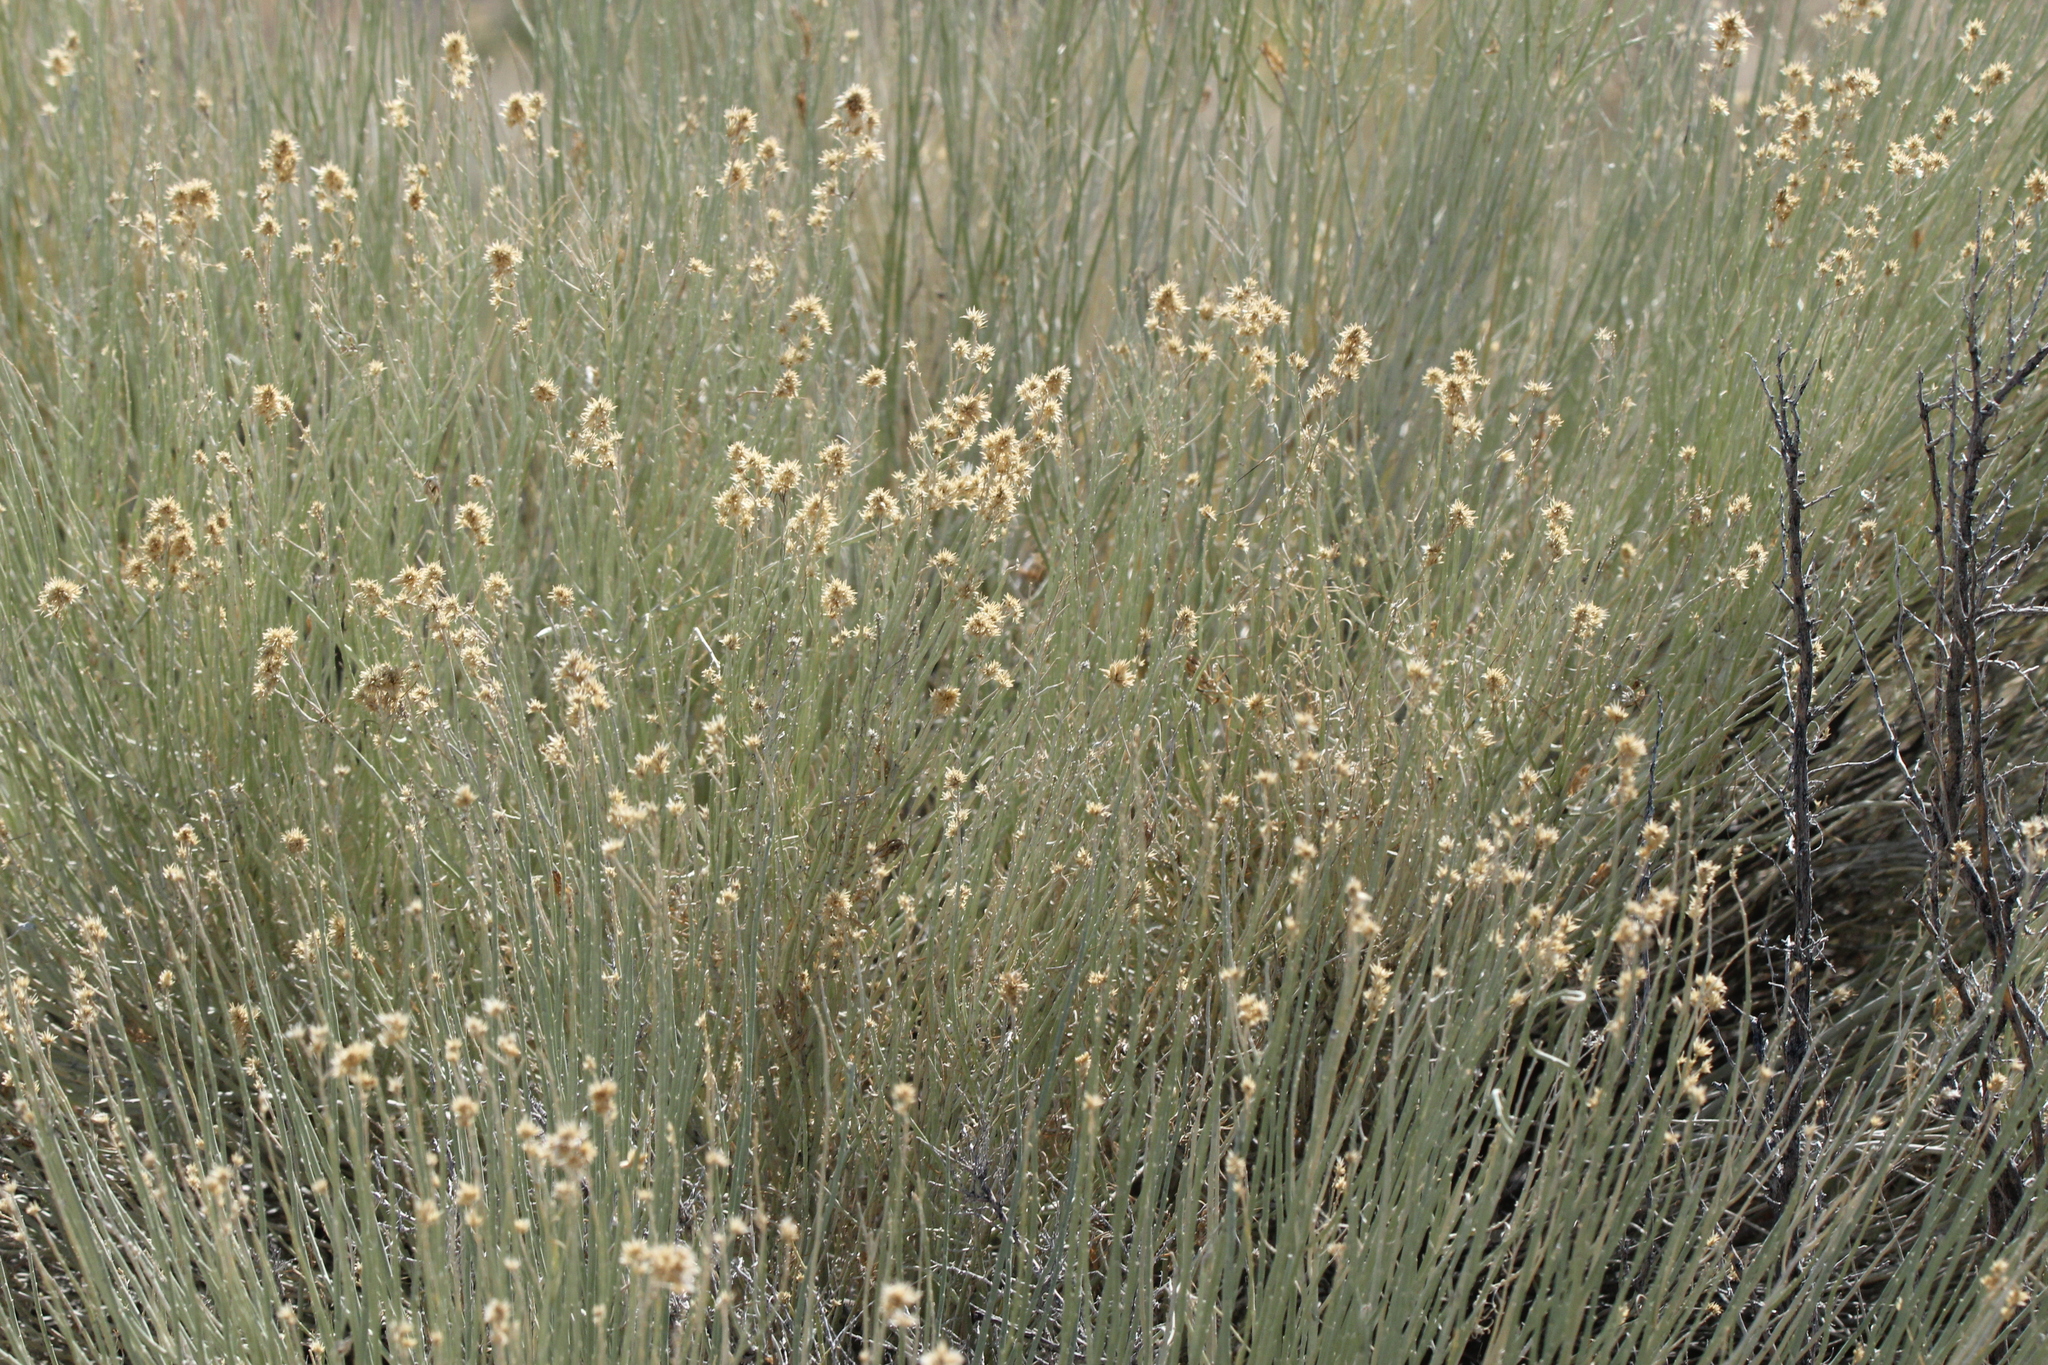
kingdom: Plantae
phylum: Tracheophyta
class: Magnoliopsida
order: Asterales
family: Asteraceae
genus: Ericameria
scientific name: Ericameria nauseosa
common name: Rubber rabbitbrush
